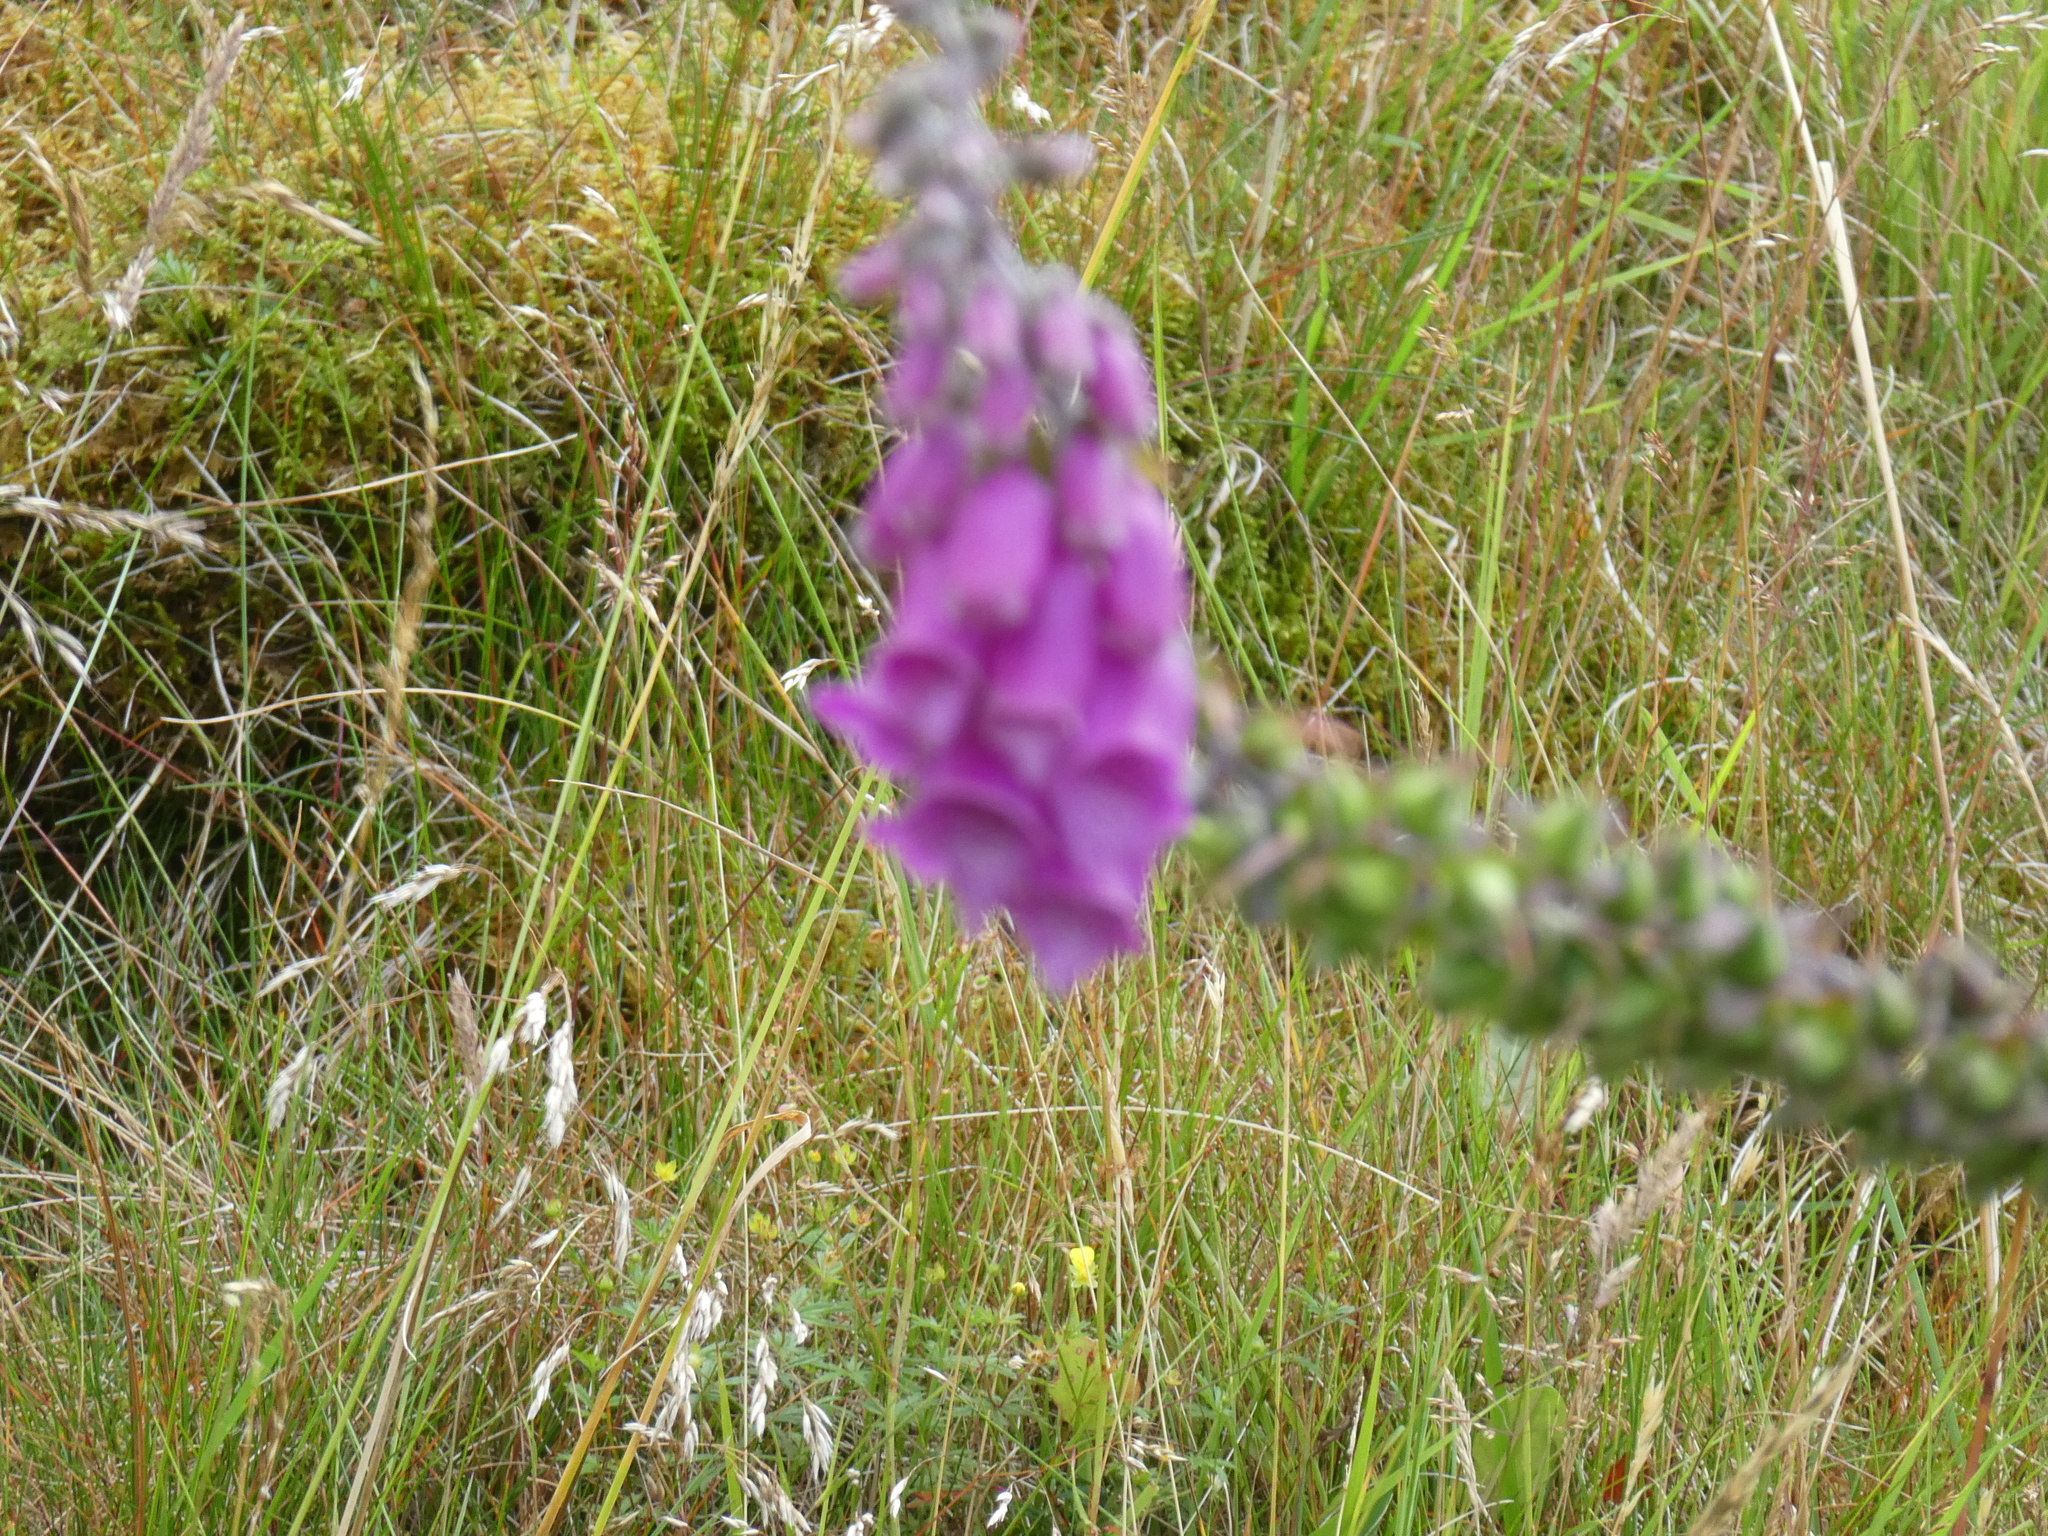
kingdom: Plantae
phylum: Tracheophyta
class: Magnoliopsida
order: Lamiales
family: Plantaginaceae
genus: Digitalis
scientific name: Digitalis purpurea
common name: Foxglove
